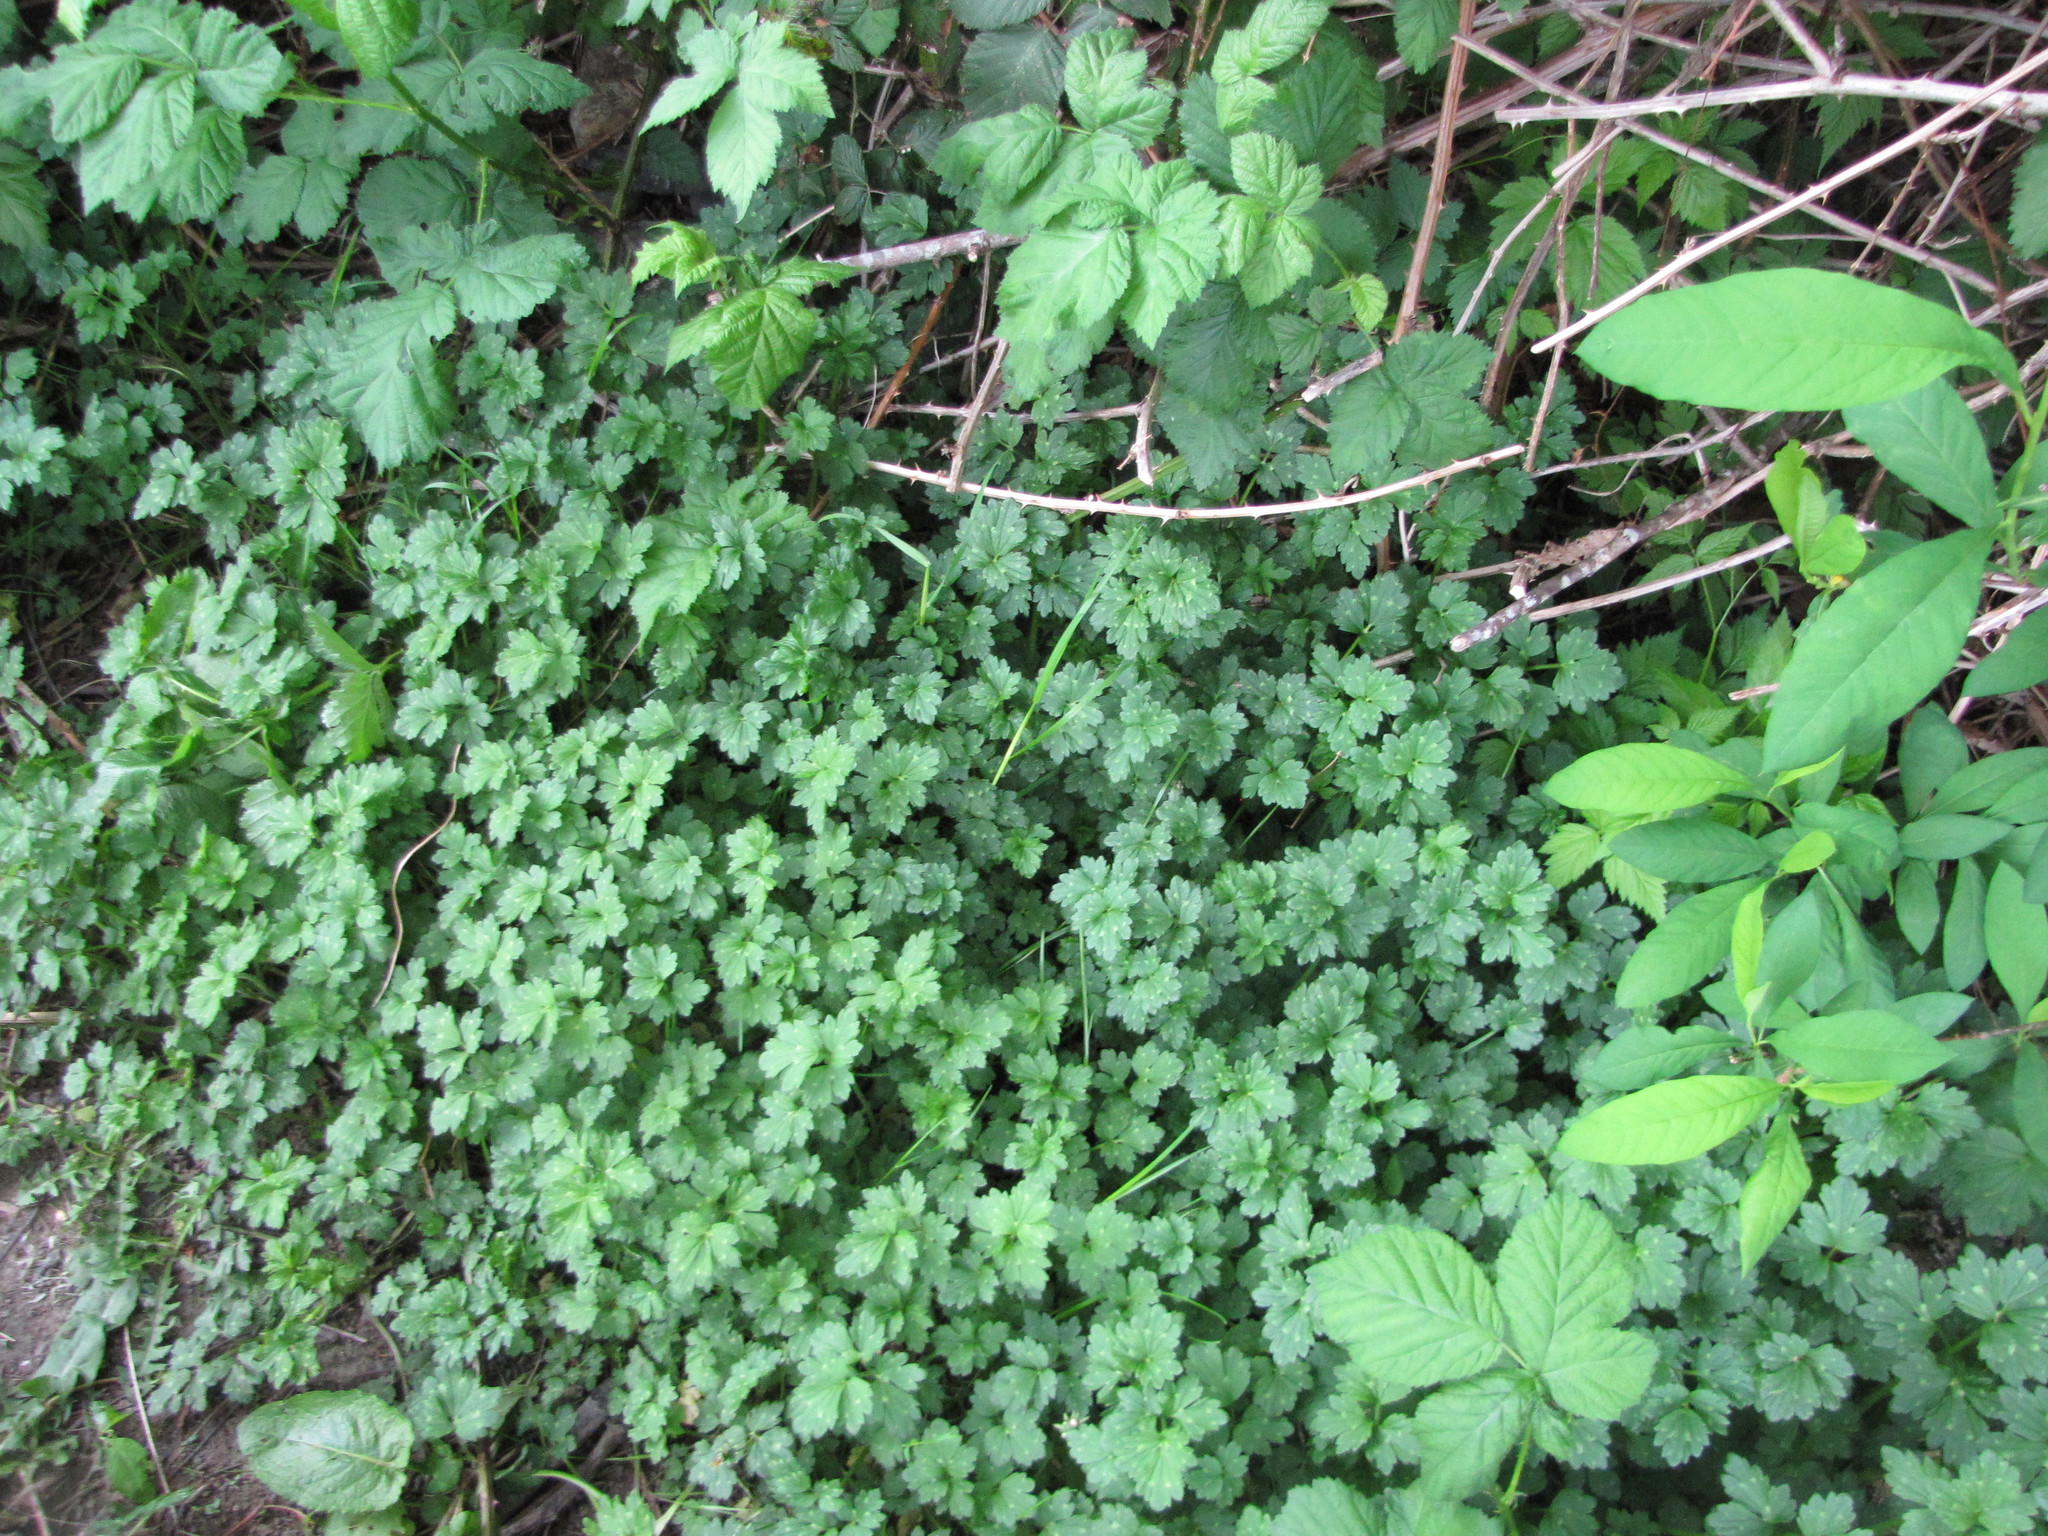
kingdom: Plantae
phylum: Tracheophyta
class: Magnoliopsida
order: Ranunculales
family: Ranunculaceae
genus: Ranunculus
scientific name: Ranunculus repens
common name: Creeping buttercup
